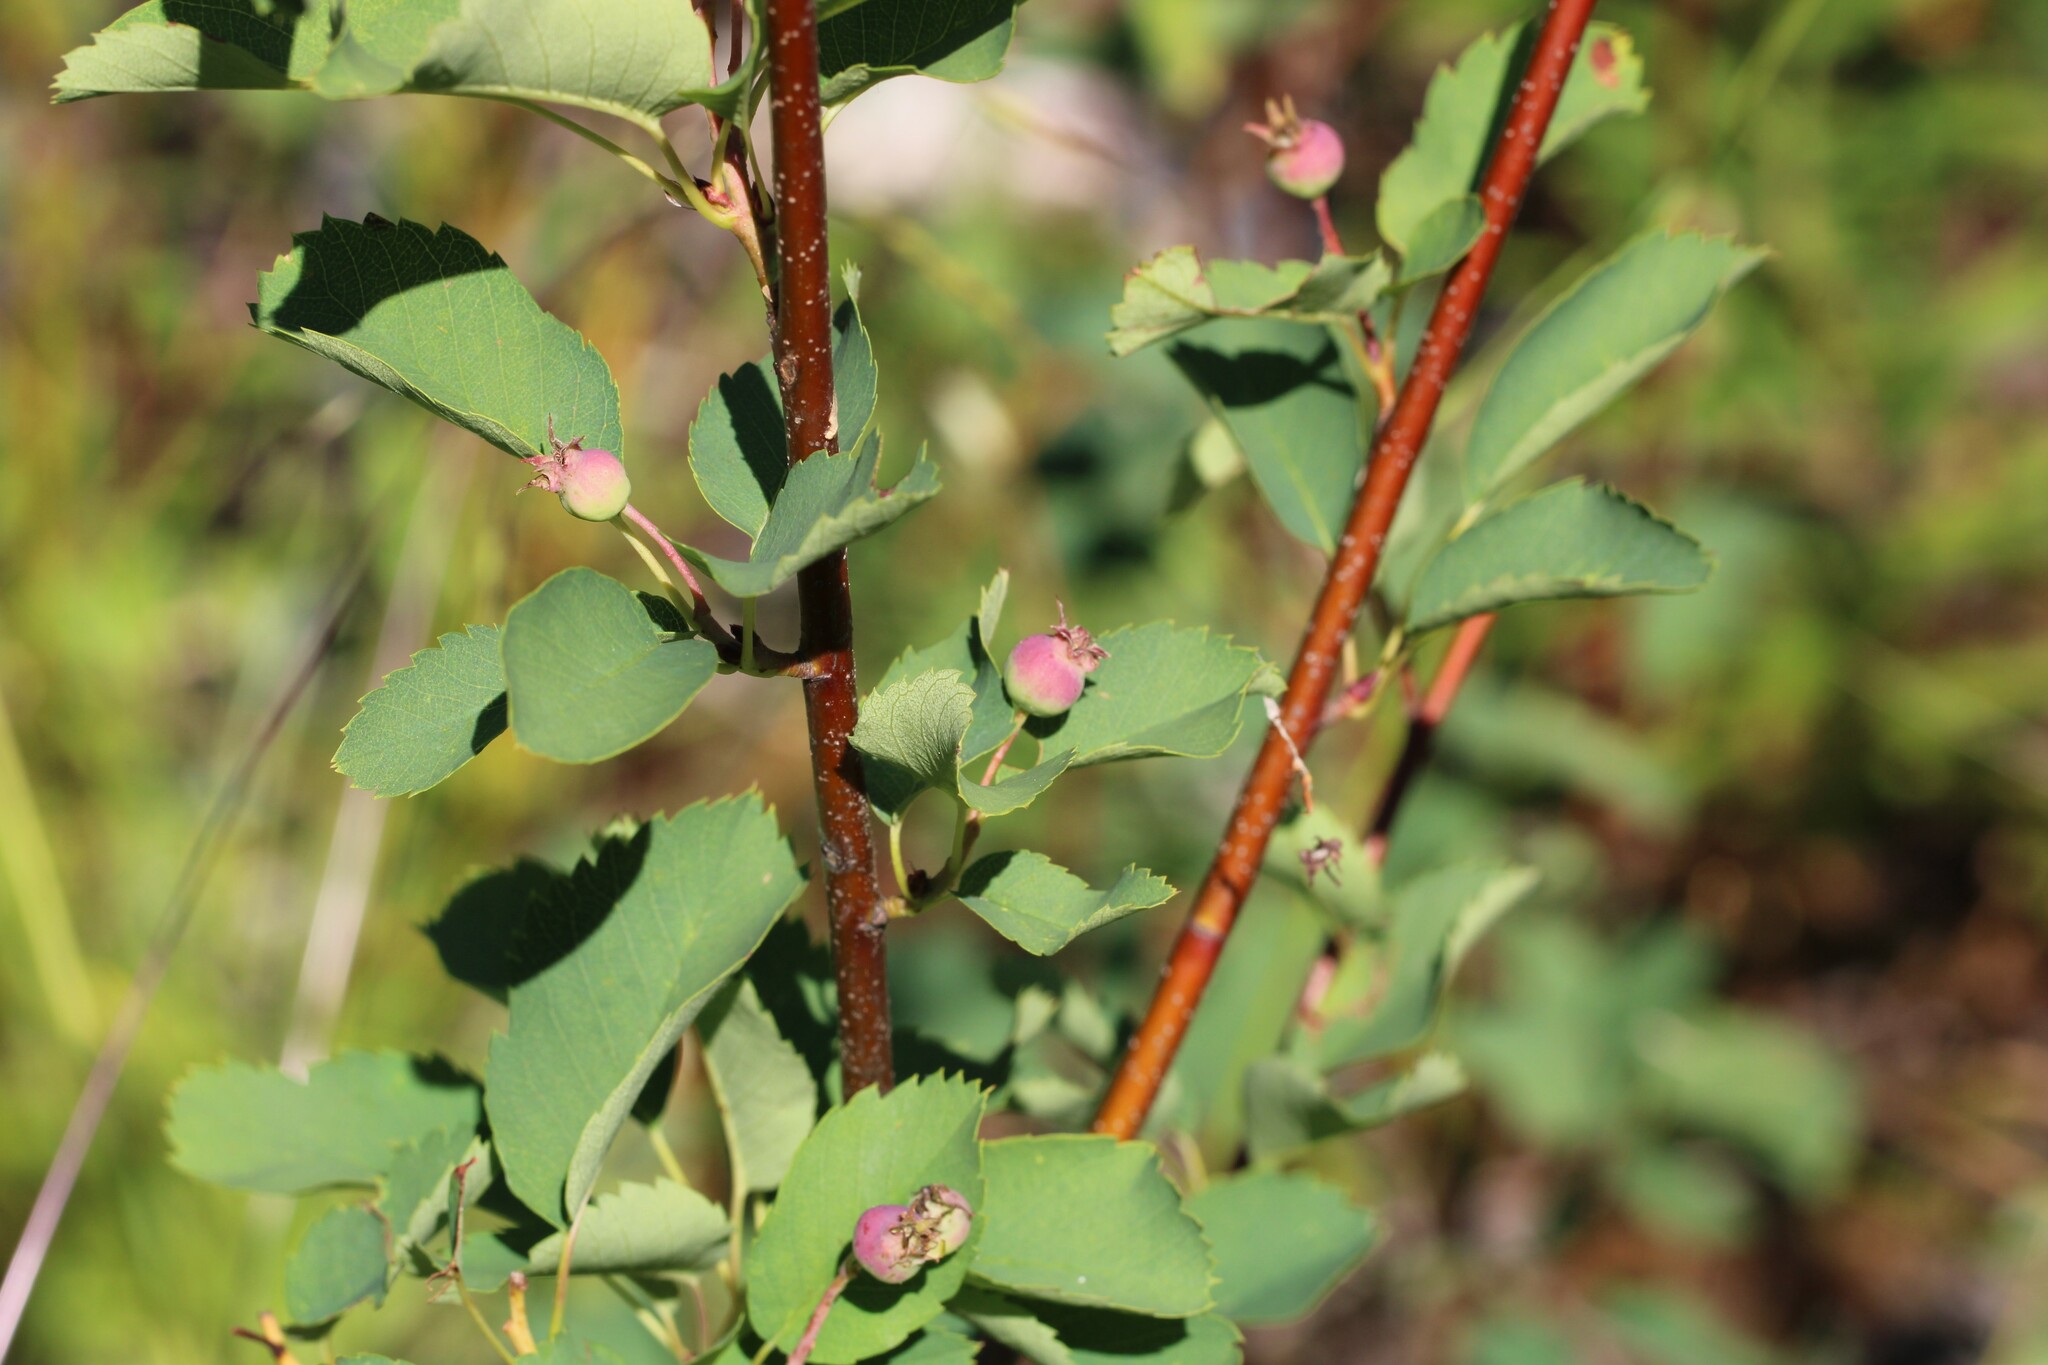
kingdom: Plantae
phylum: Tracheophyta
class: Magnoliopsida
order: Rosales
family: Rosaceae
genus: Amelanchier
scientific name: Amelanchier alnifolia
